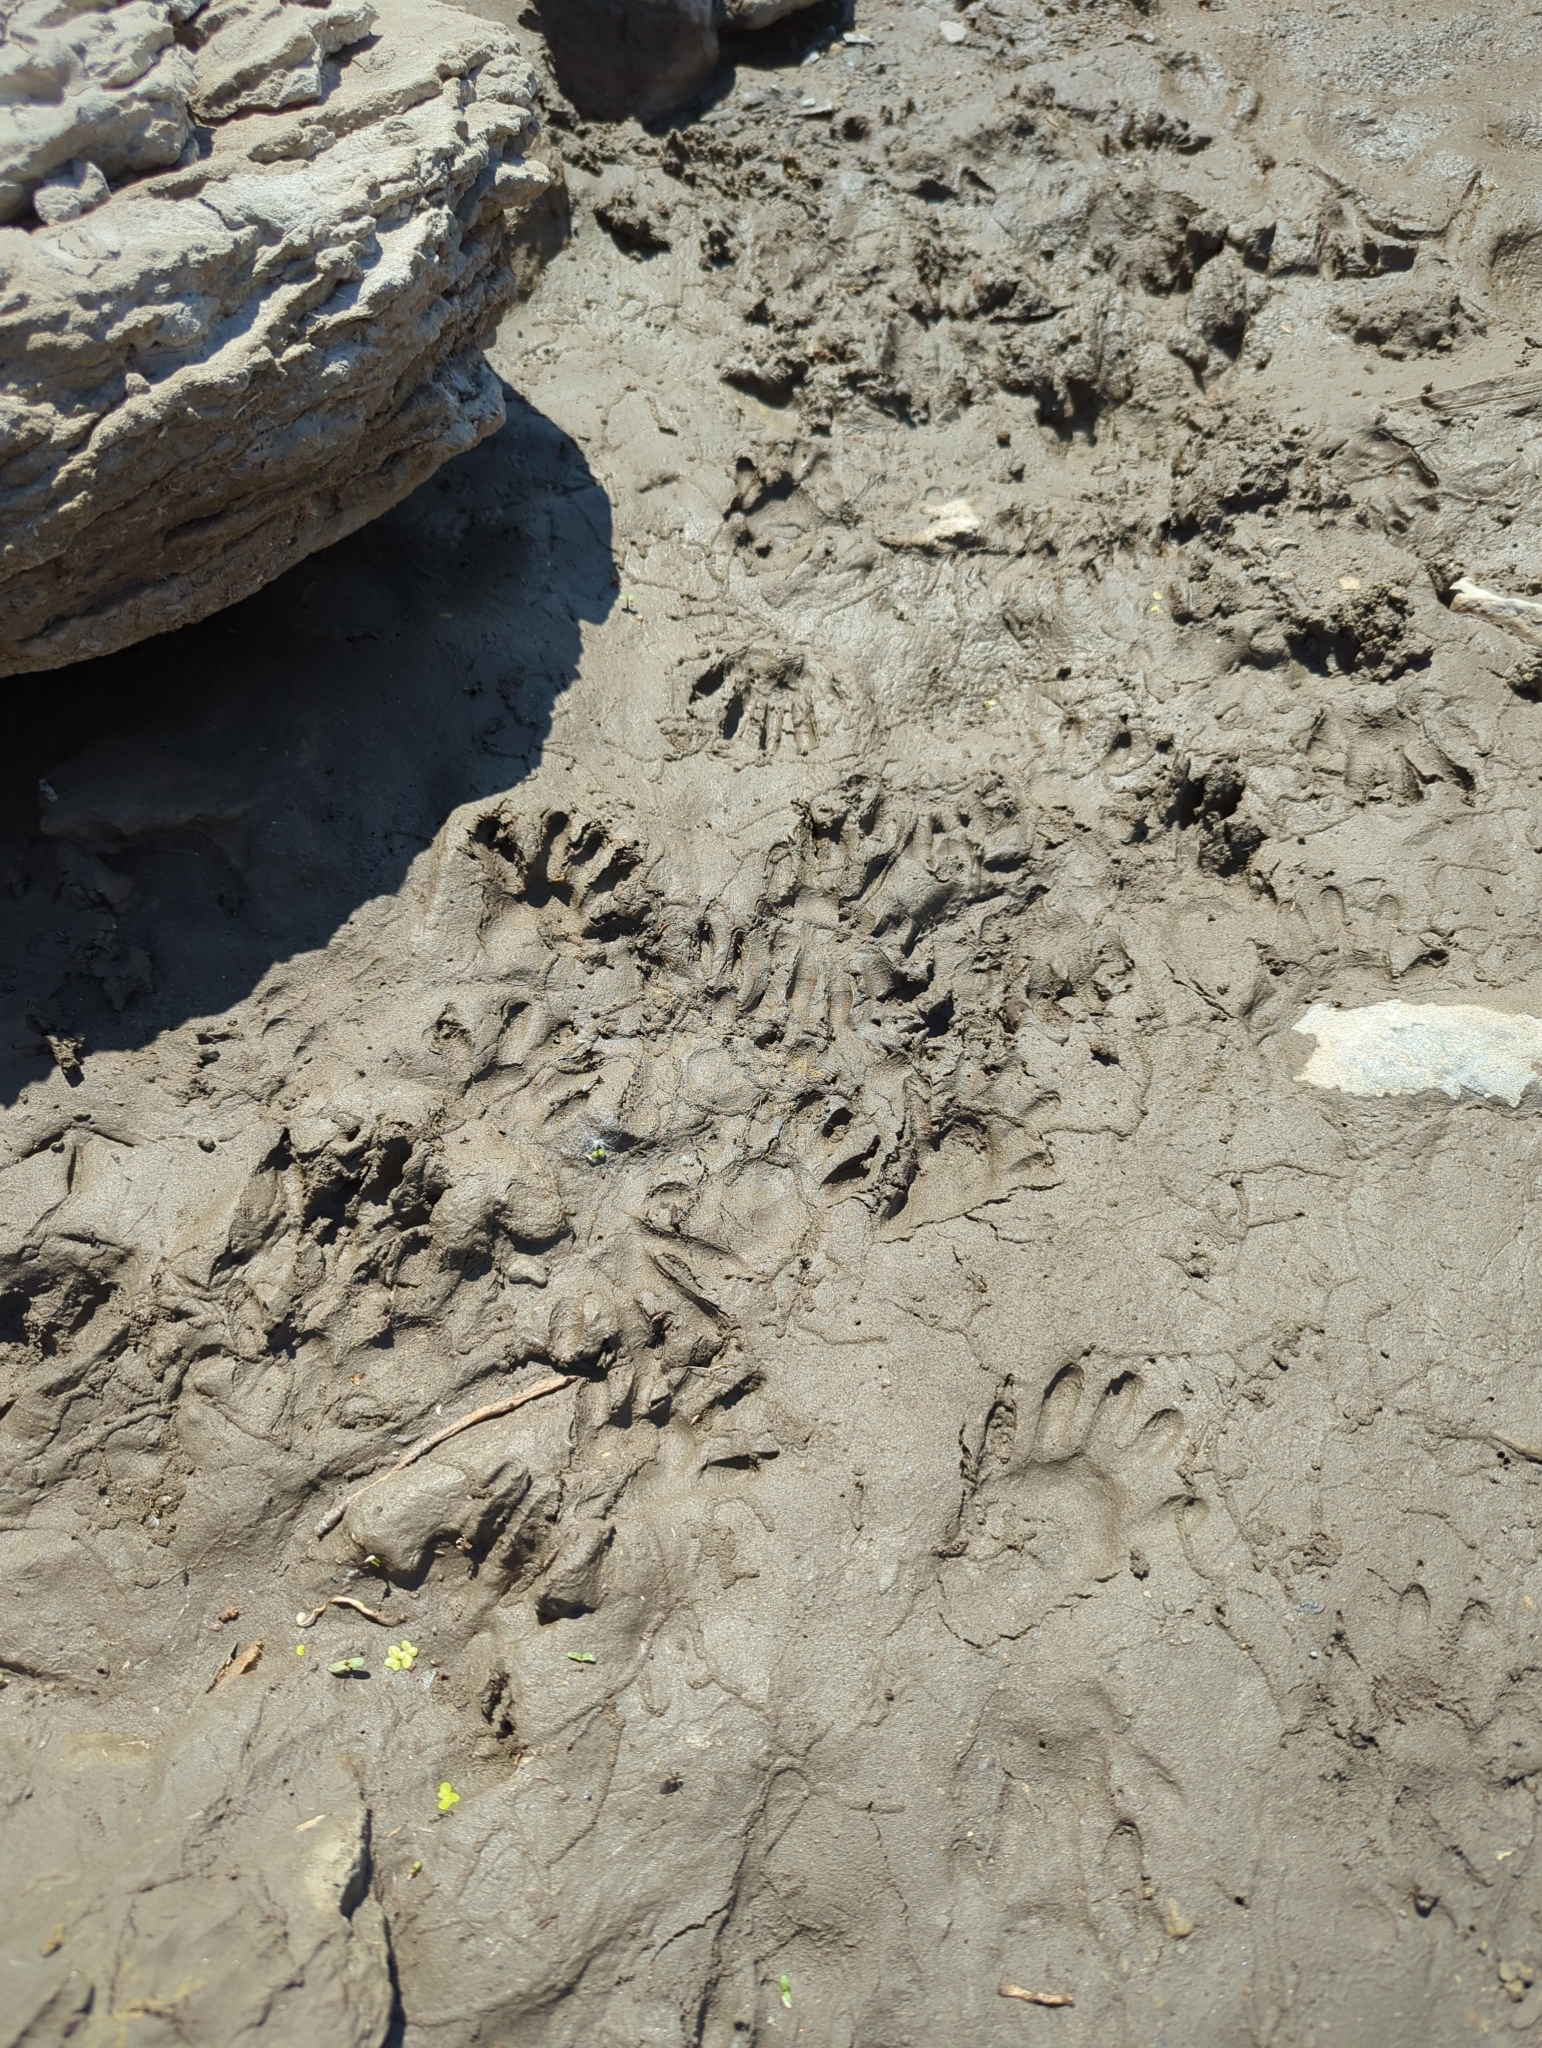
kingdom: Animalia
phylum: Chordata
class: Mammalia
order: Carnivora
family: Procyonidae
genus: Procyon
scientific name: Procyon lotor
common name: Raccoon
